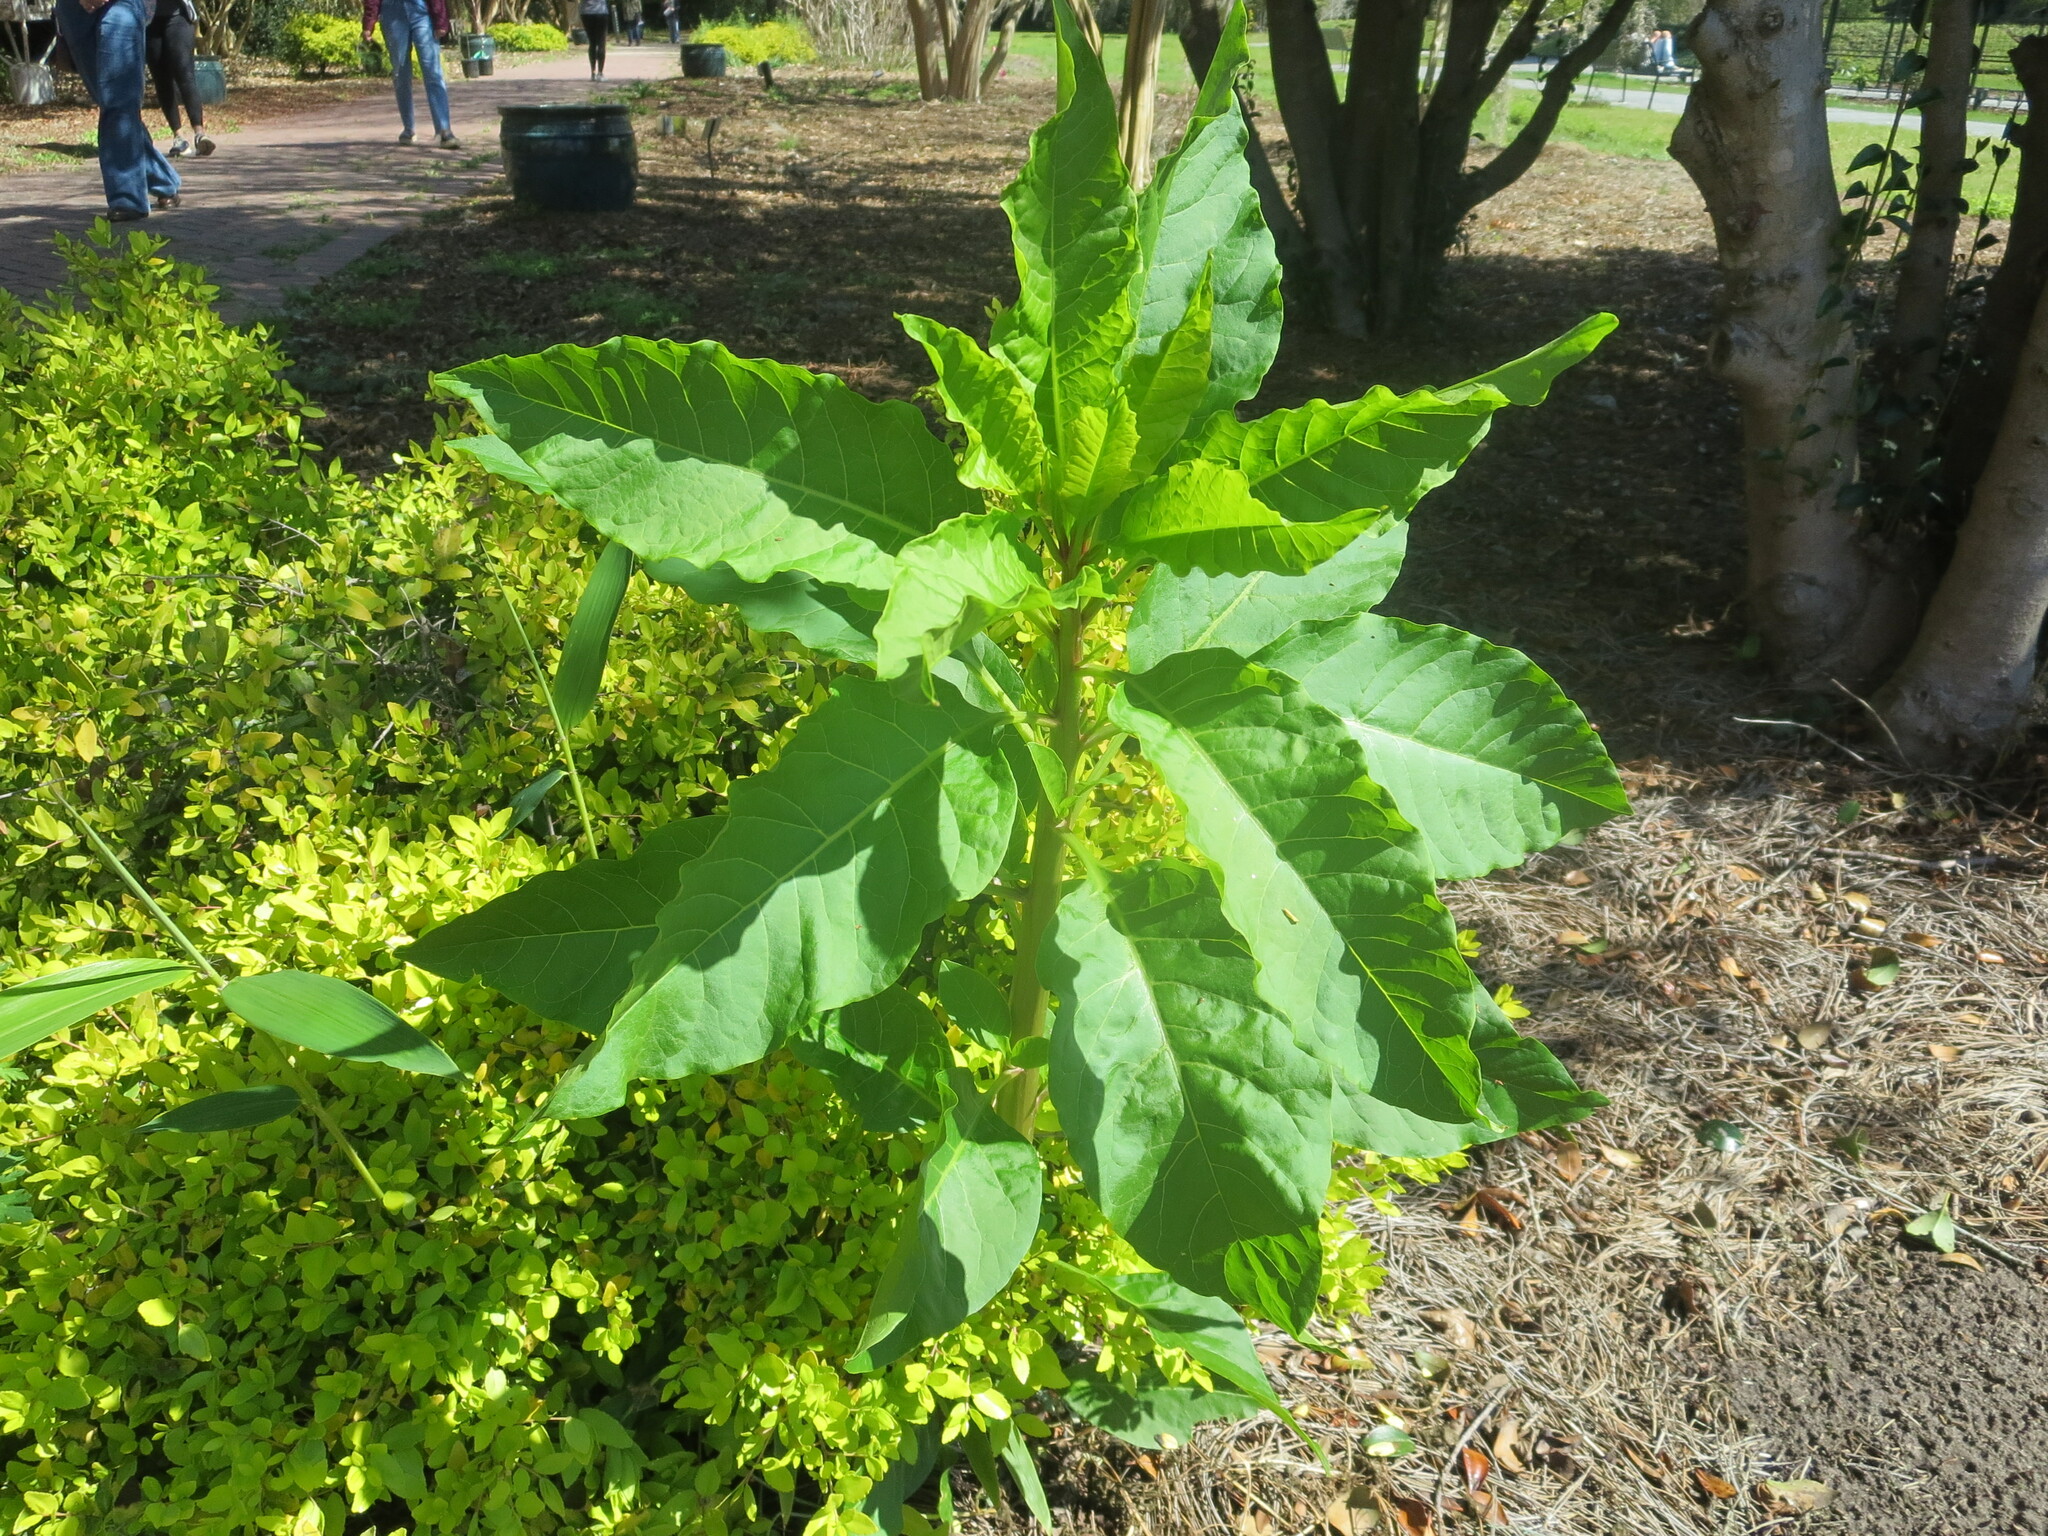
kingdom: Plantae
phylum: Tracheophyta
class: Magnoliopsida
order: Caryophyllales
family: Phytolaccaceae
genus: Phytolacca
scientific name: Phytolacca americana
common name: American pokeweed
